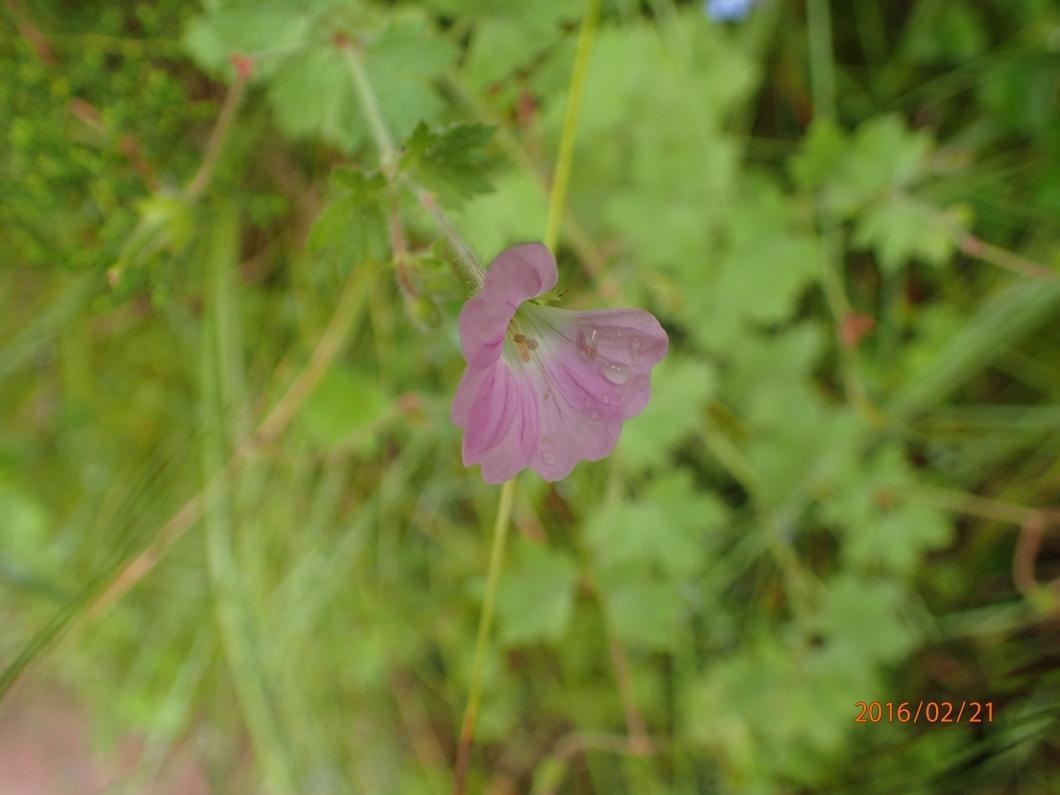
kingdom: Plantae
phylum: Tracheophyta
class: Magnoliopsida
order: Geraniales
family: Geraniaceae
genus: Geranium
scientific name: Geranium schlechteri
